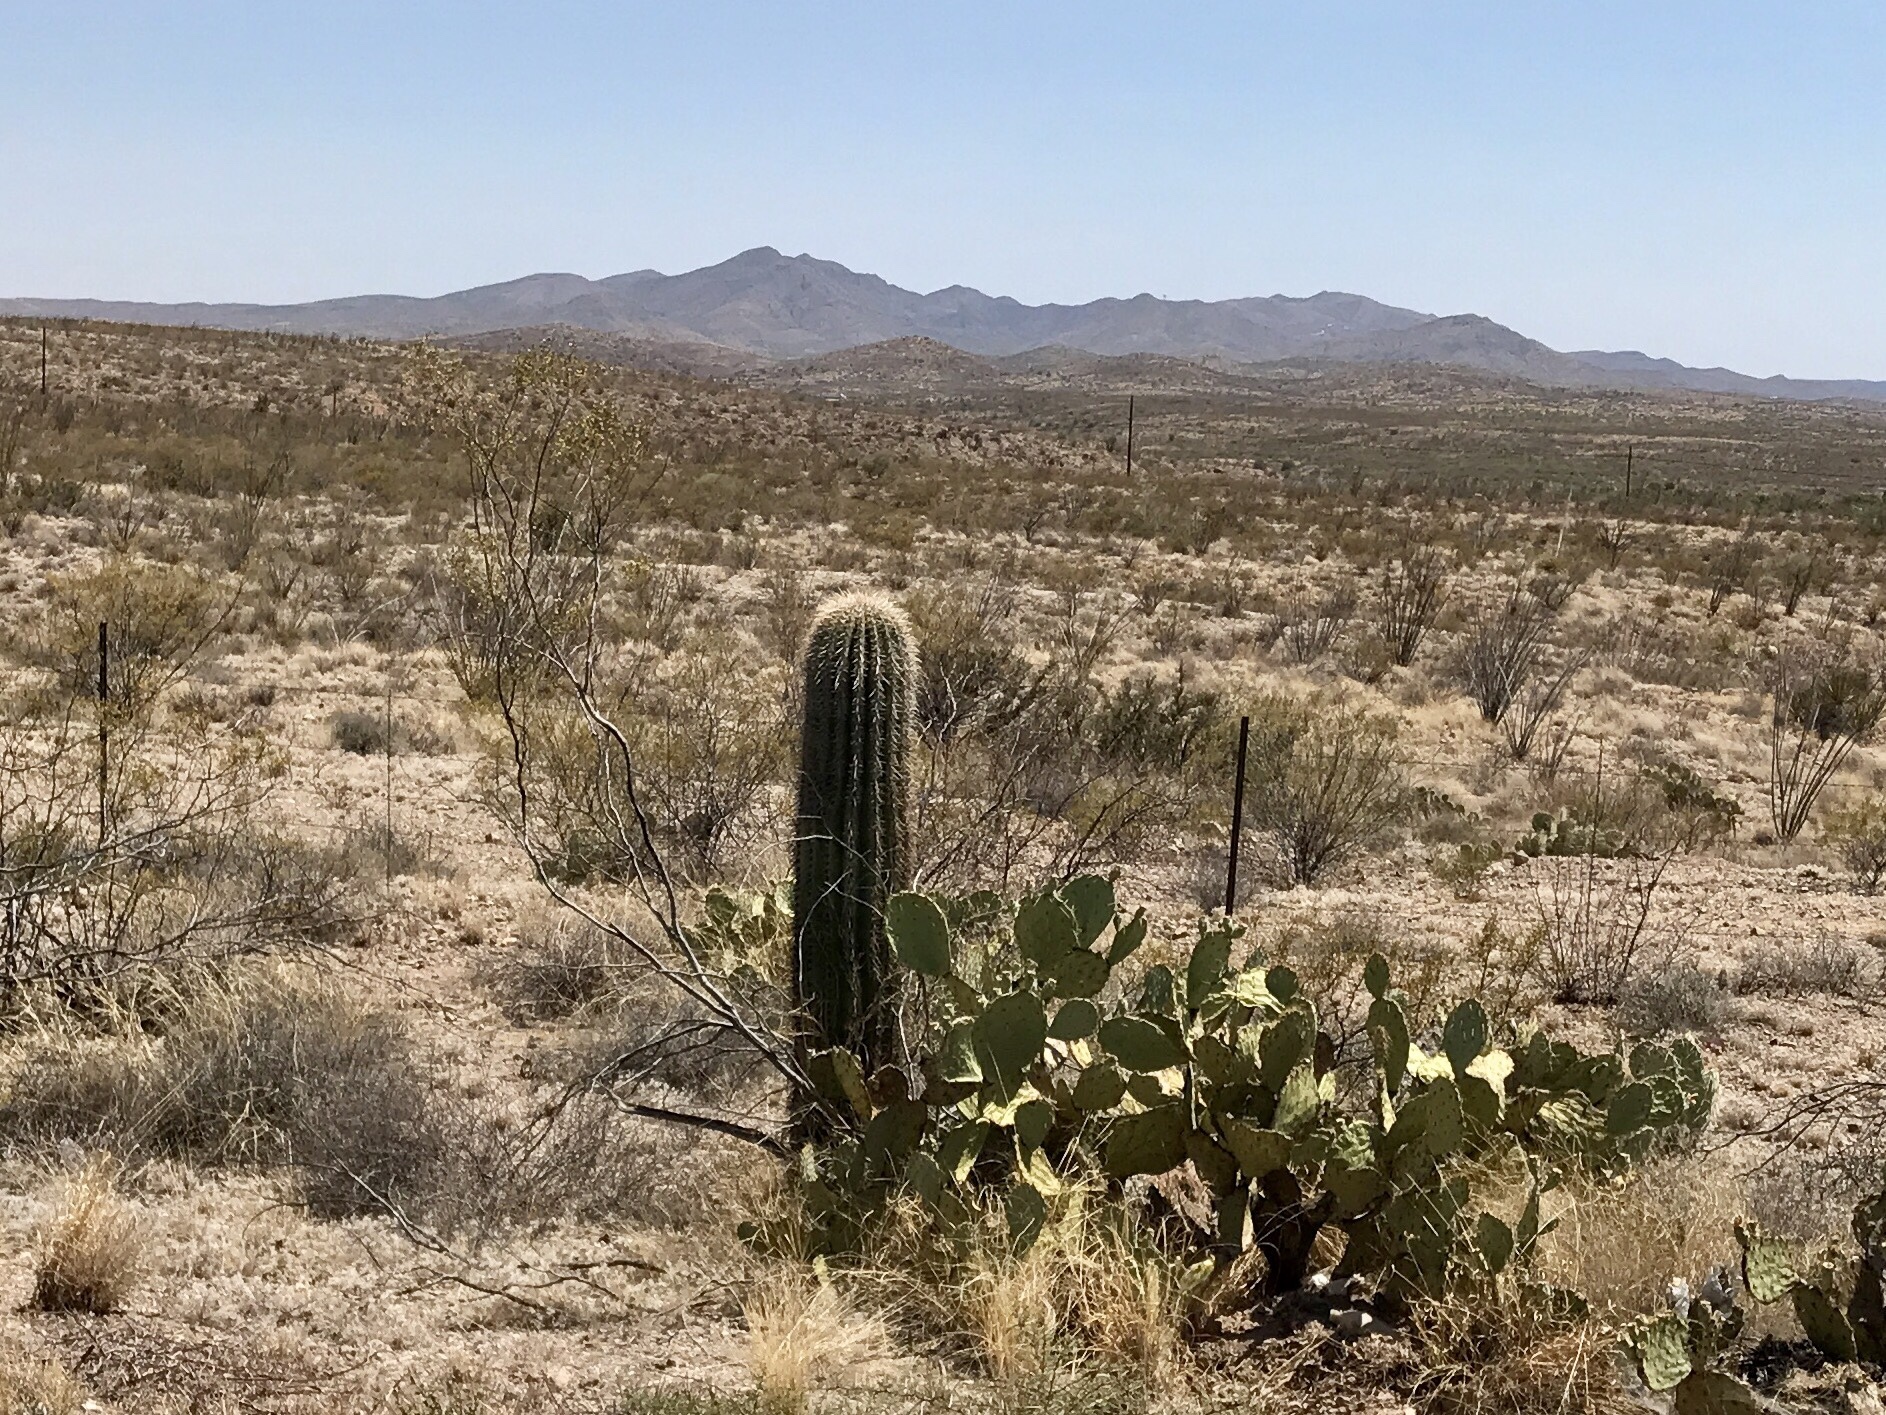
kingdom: Plantae
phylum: Tracheophyta
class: Magnoliopsida
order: Caryophyllales
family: Cactaceae
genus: Carnegiea
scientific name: Carnegiea gigantea
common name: Saguaro
